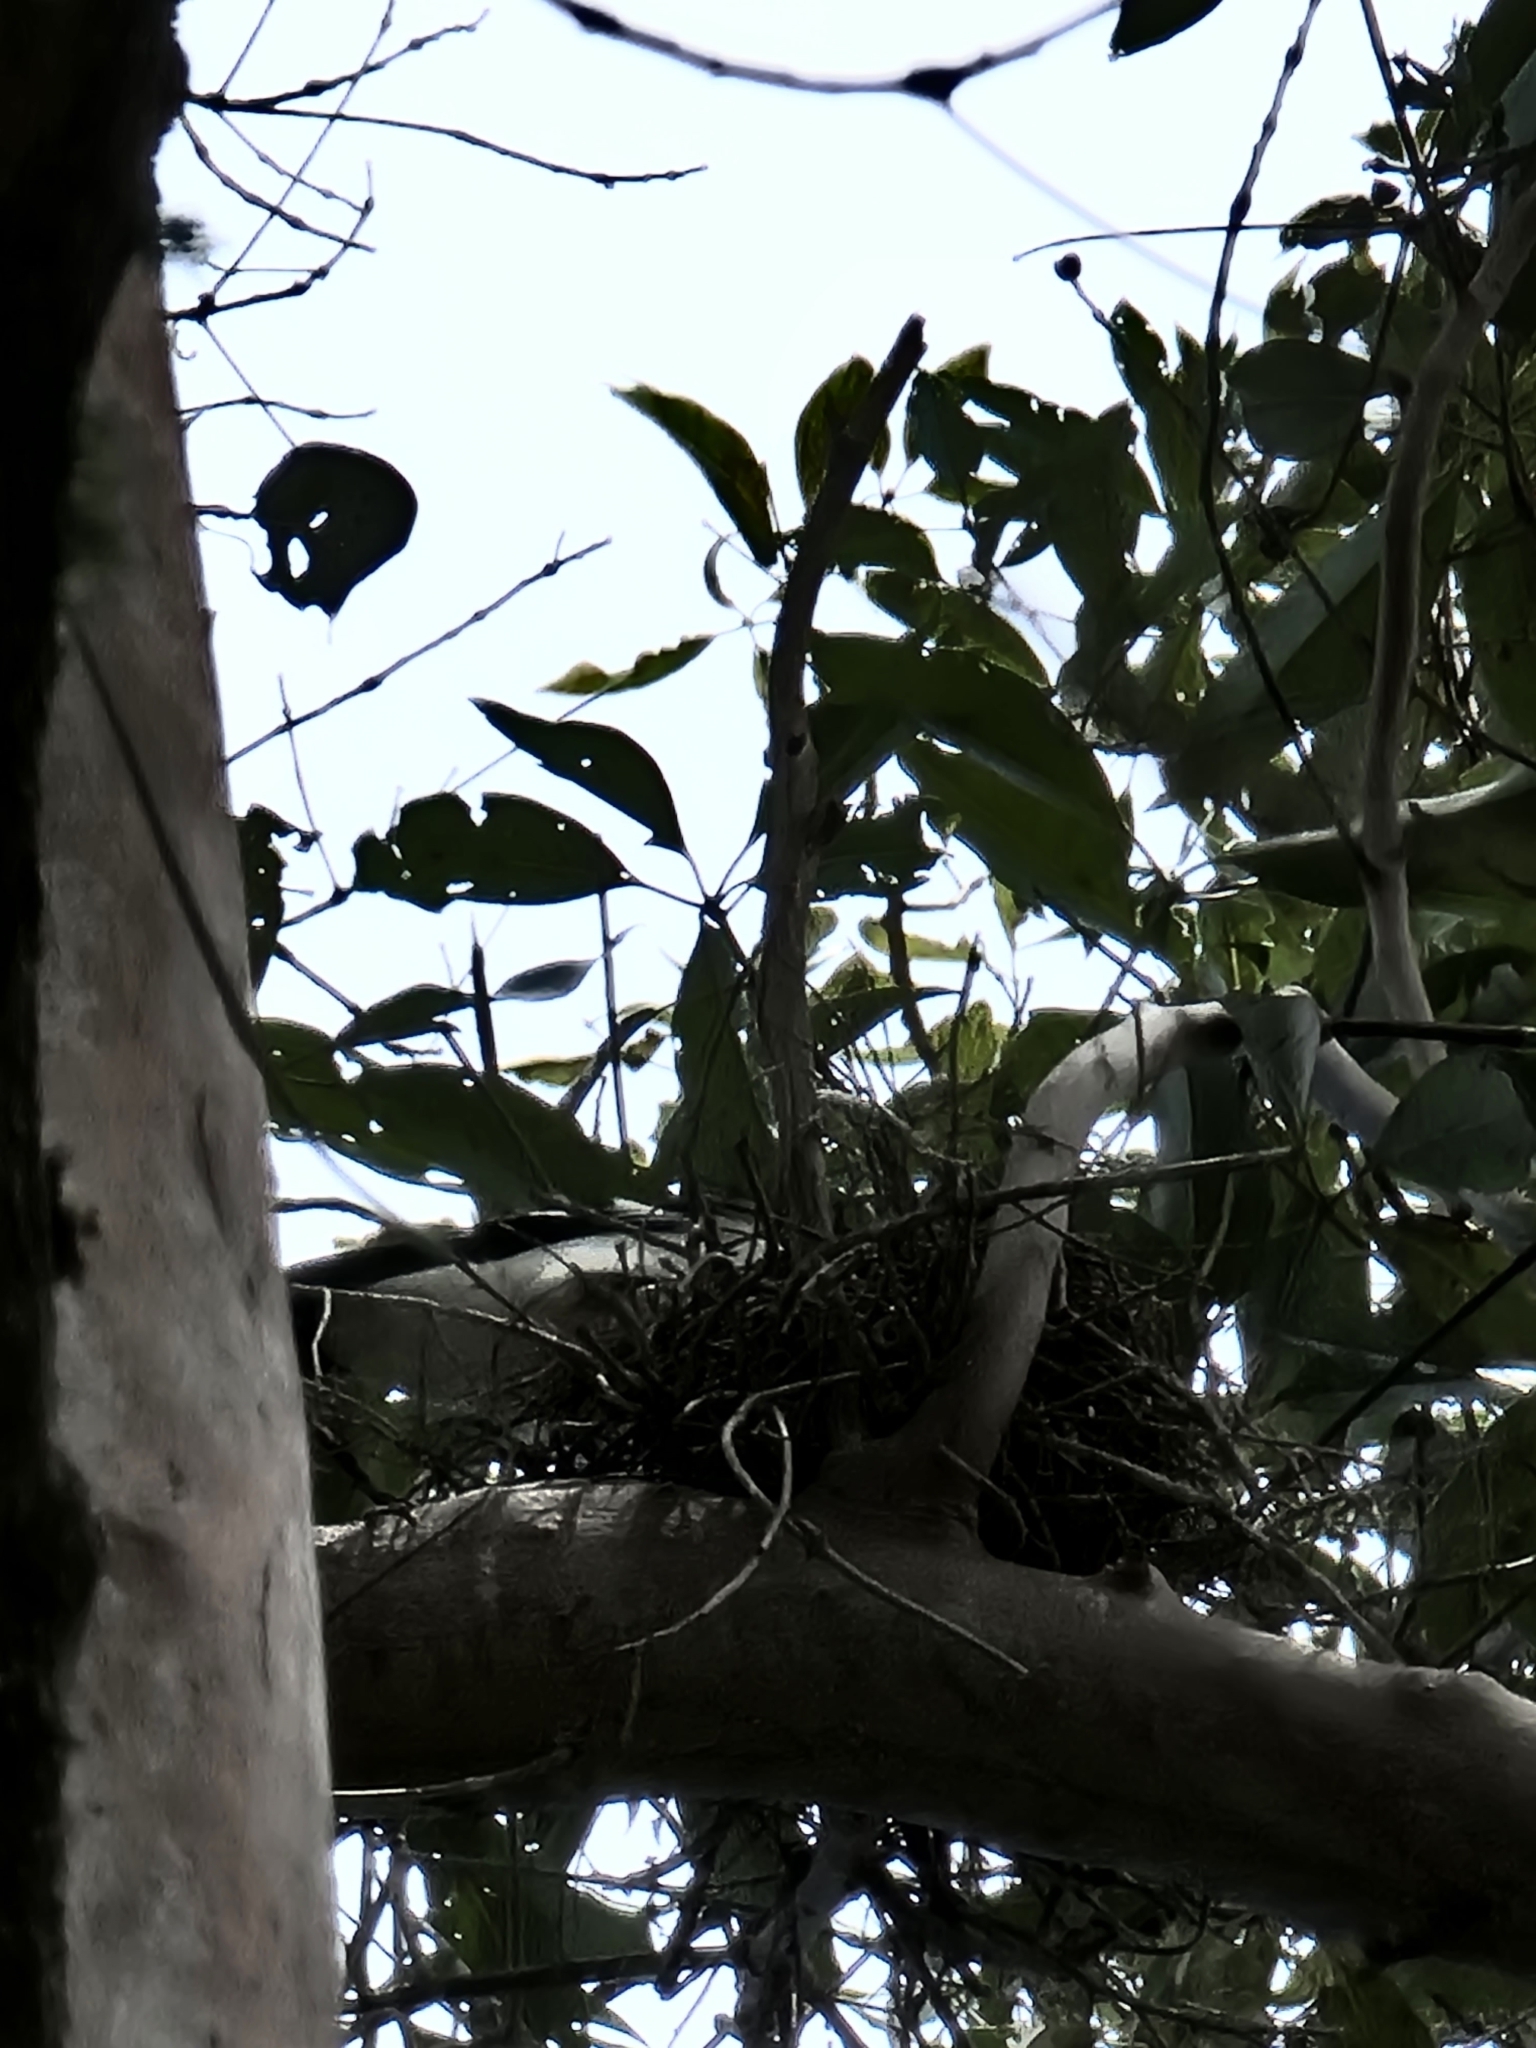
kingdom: Animalia
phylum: Chordata
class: Aves
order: Passeriformes
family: Cracticidae
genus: Cracticus
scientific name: Cracticus nigrogularis
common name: Pied butcherbird
